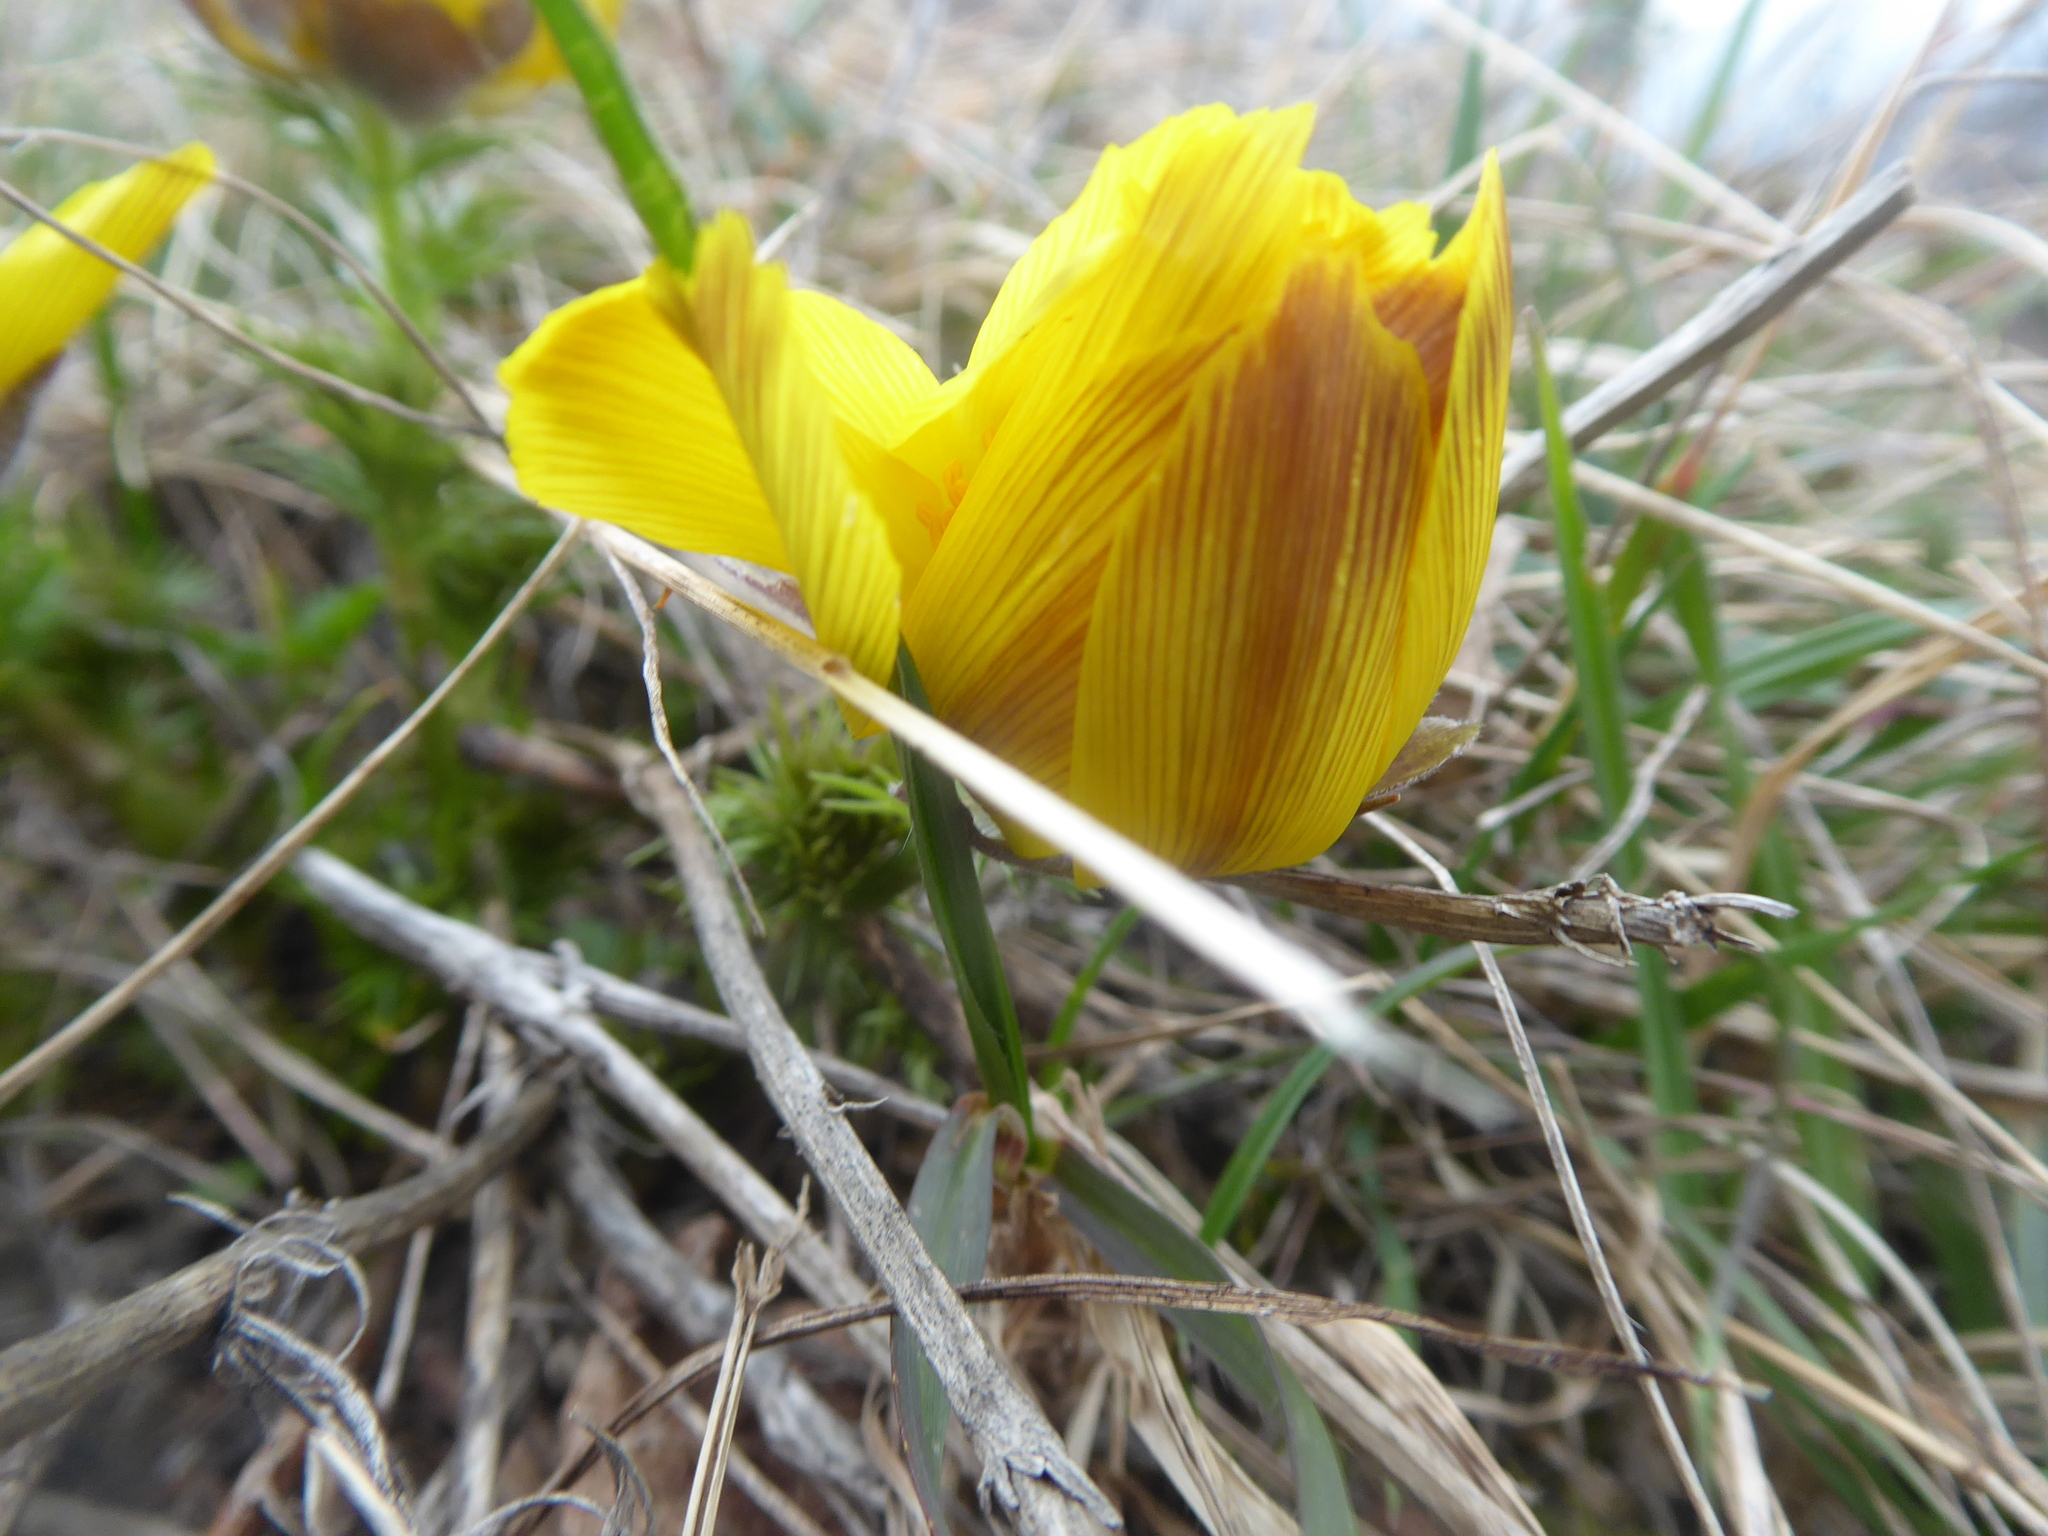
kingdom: Plantae
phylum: Tracheophyta
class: Magnoliopsida
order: Ranunculales
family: Ranunculaceae
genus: Adonis
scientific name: Adonis vernalis
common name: Yellow pheasants-eye
